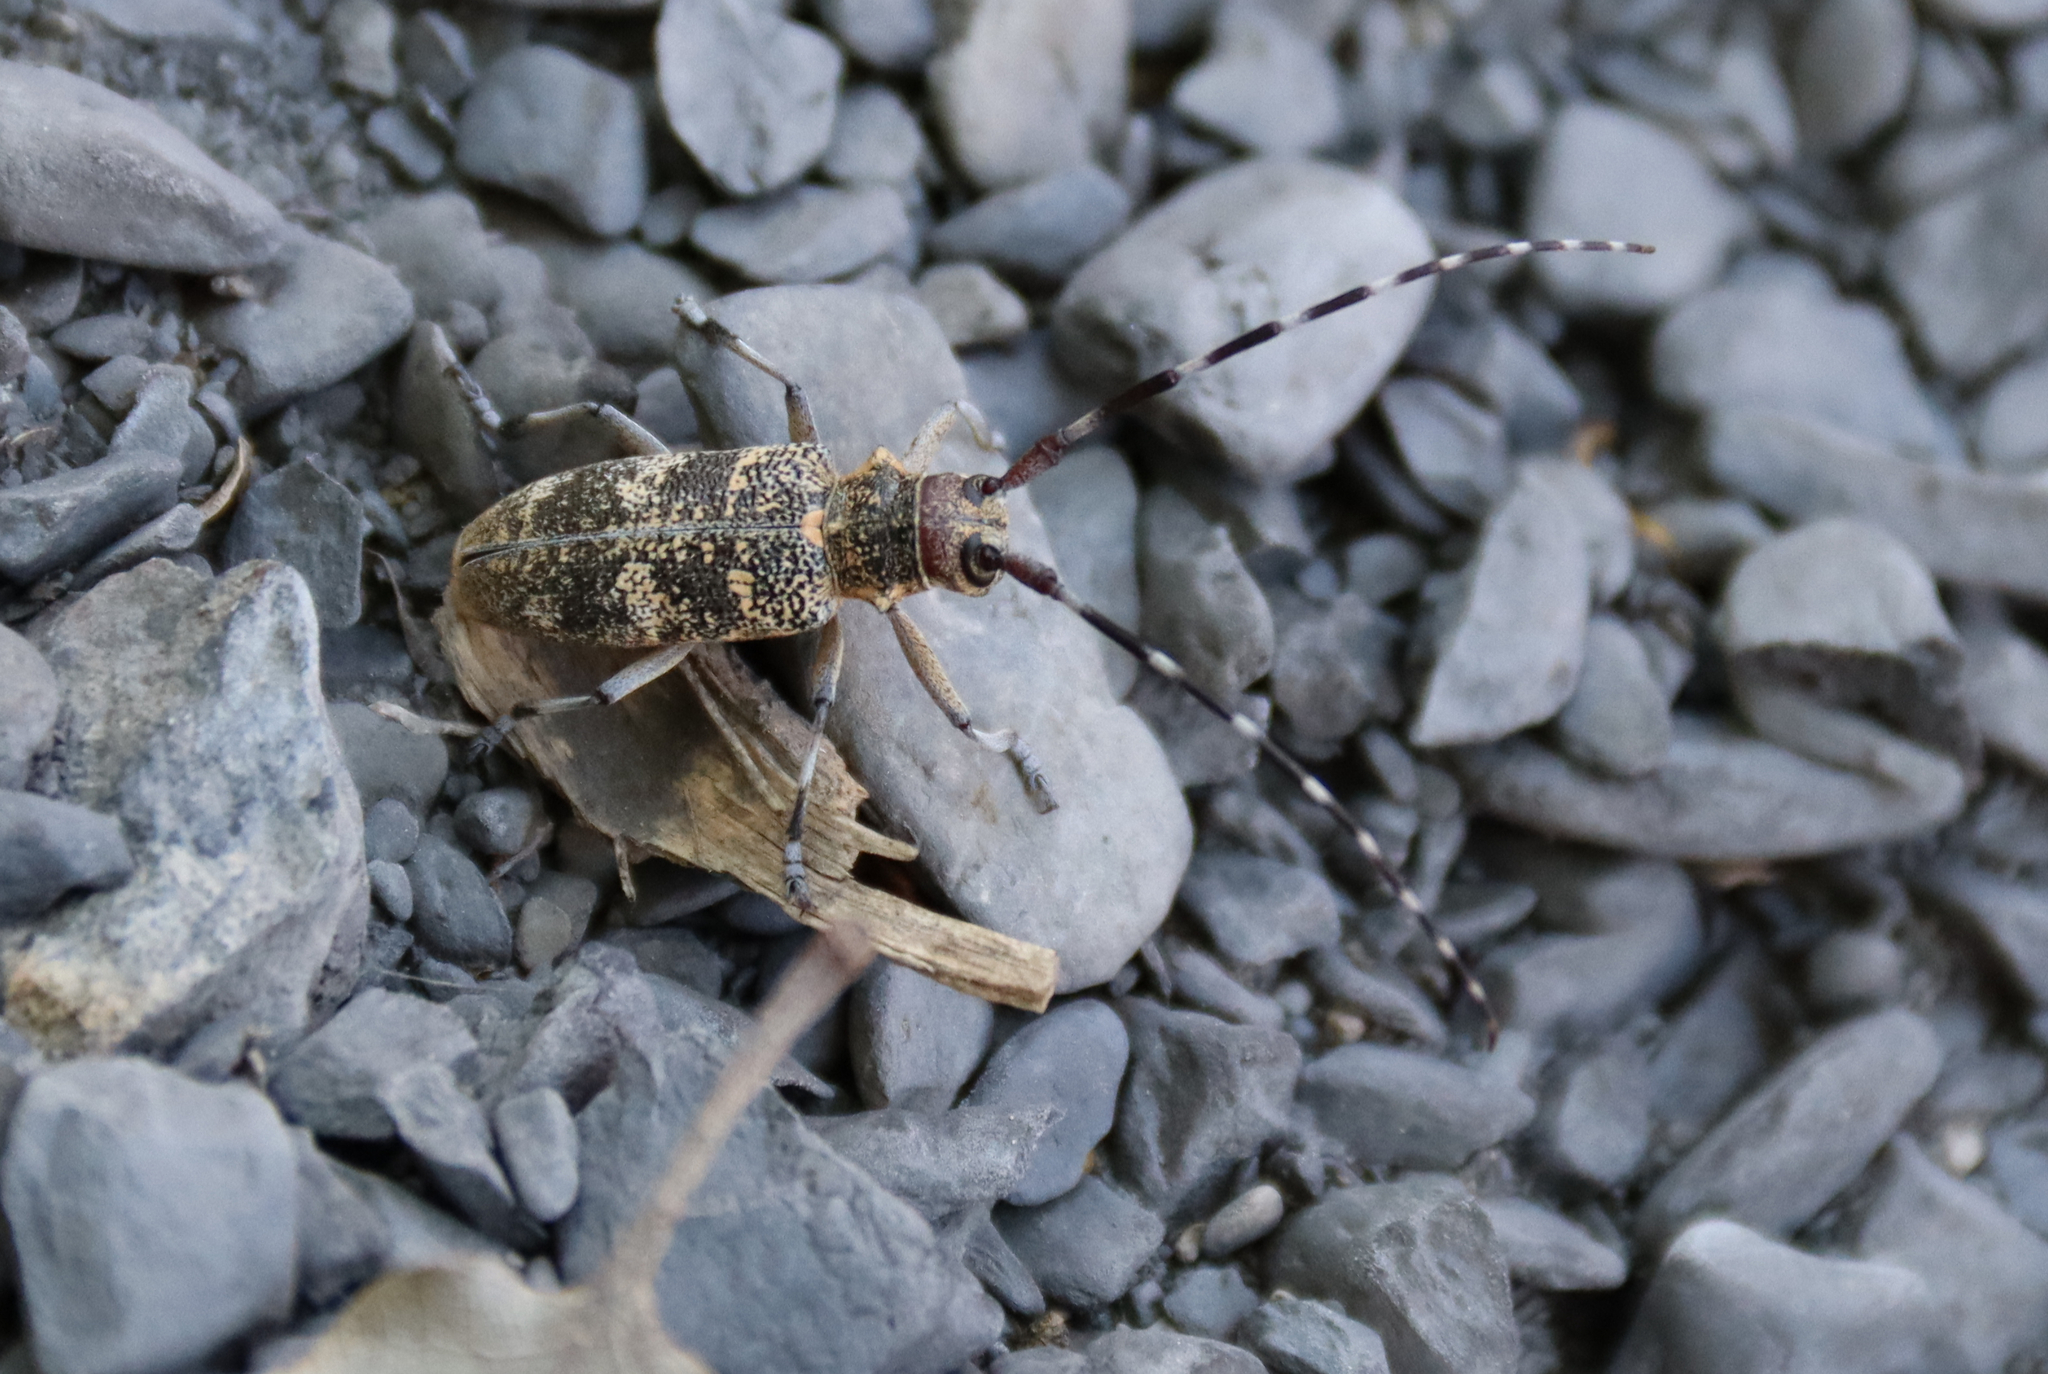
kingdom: Animalia
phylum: Arthropoda
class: Insecta
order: Coleoptera
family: Cerambycidae
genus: Monochamus
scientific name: Monochamus galloprovincialis
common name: Pine sawyer
